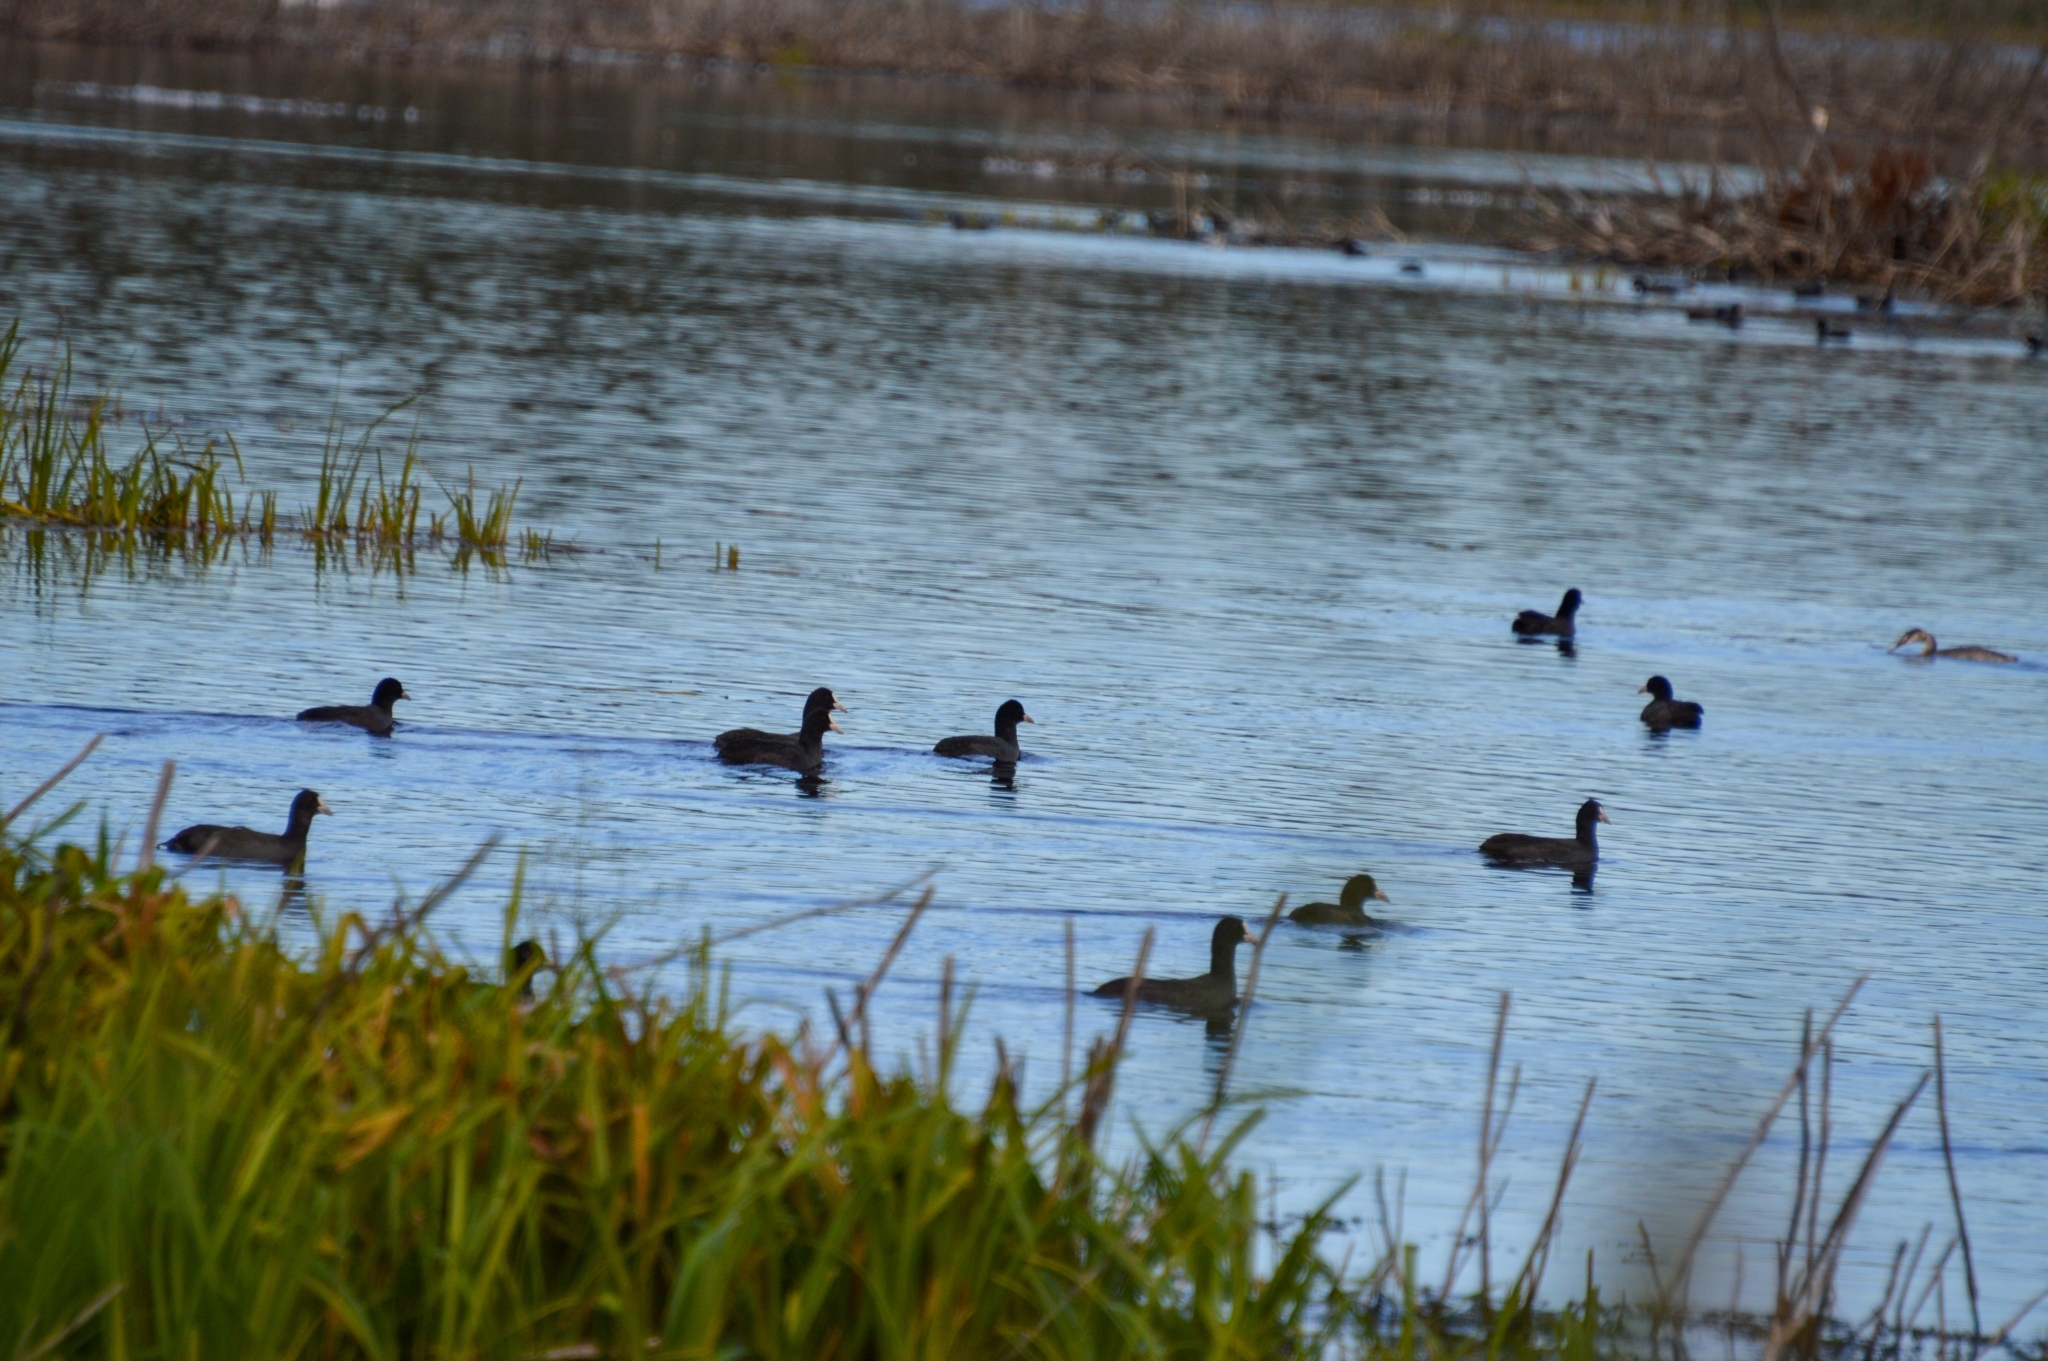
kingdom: Animalia
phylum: Chordata
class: Aves
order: Gruiformes
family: Rallidae
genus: Fulica
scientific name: Fulica atra
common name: Eurasian coot
